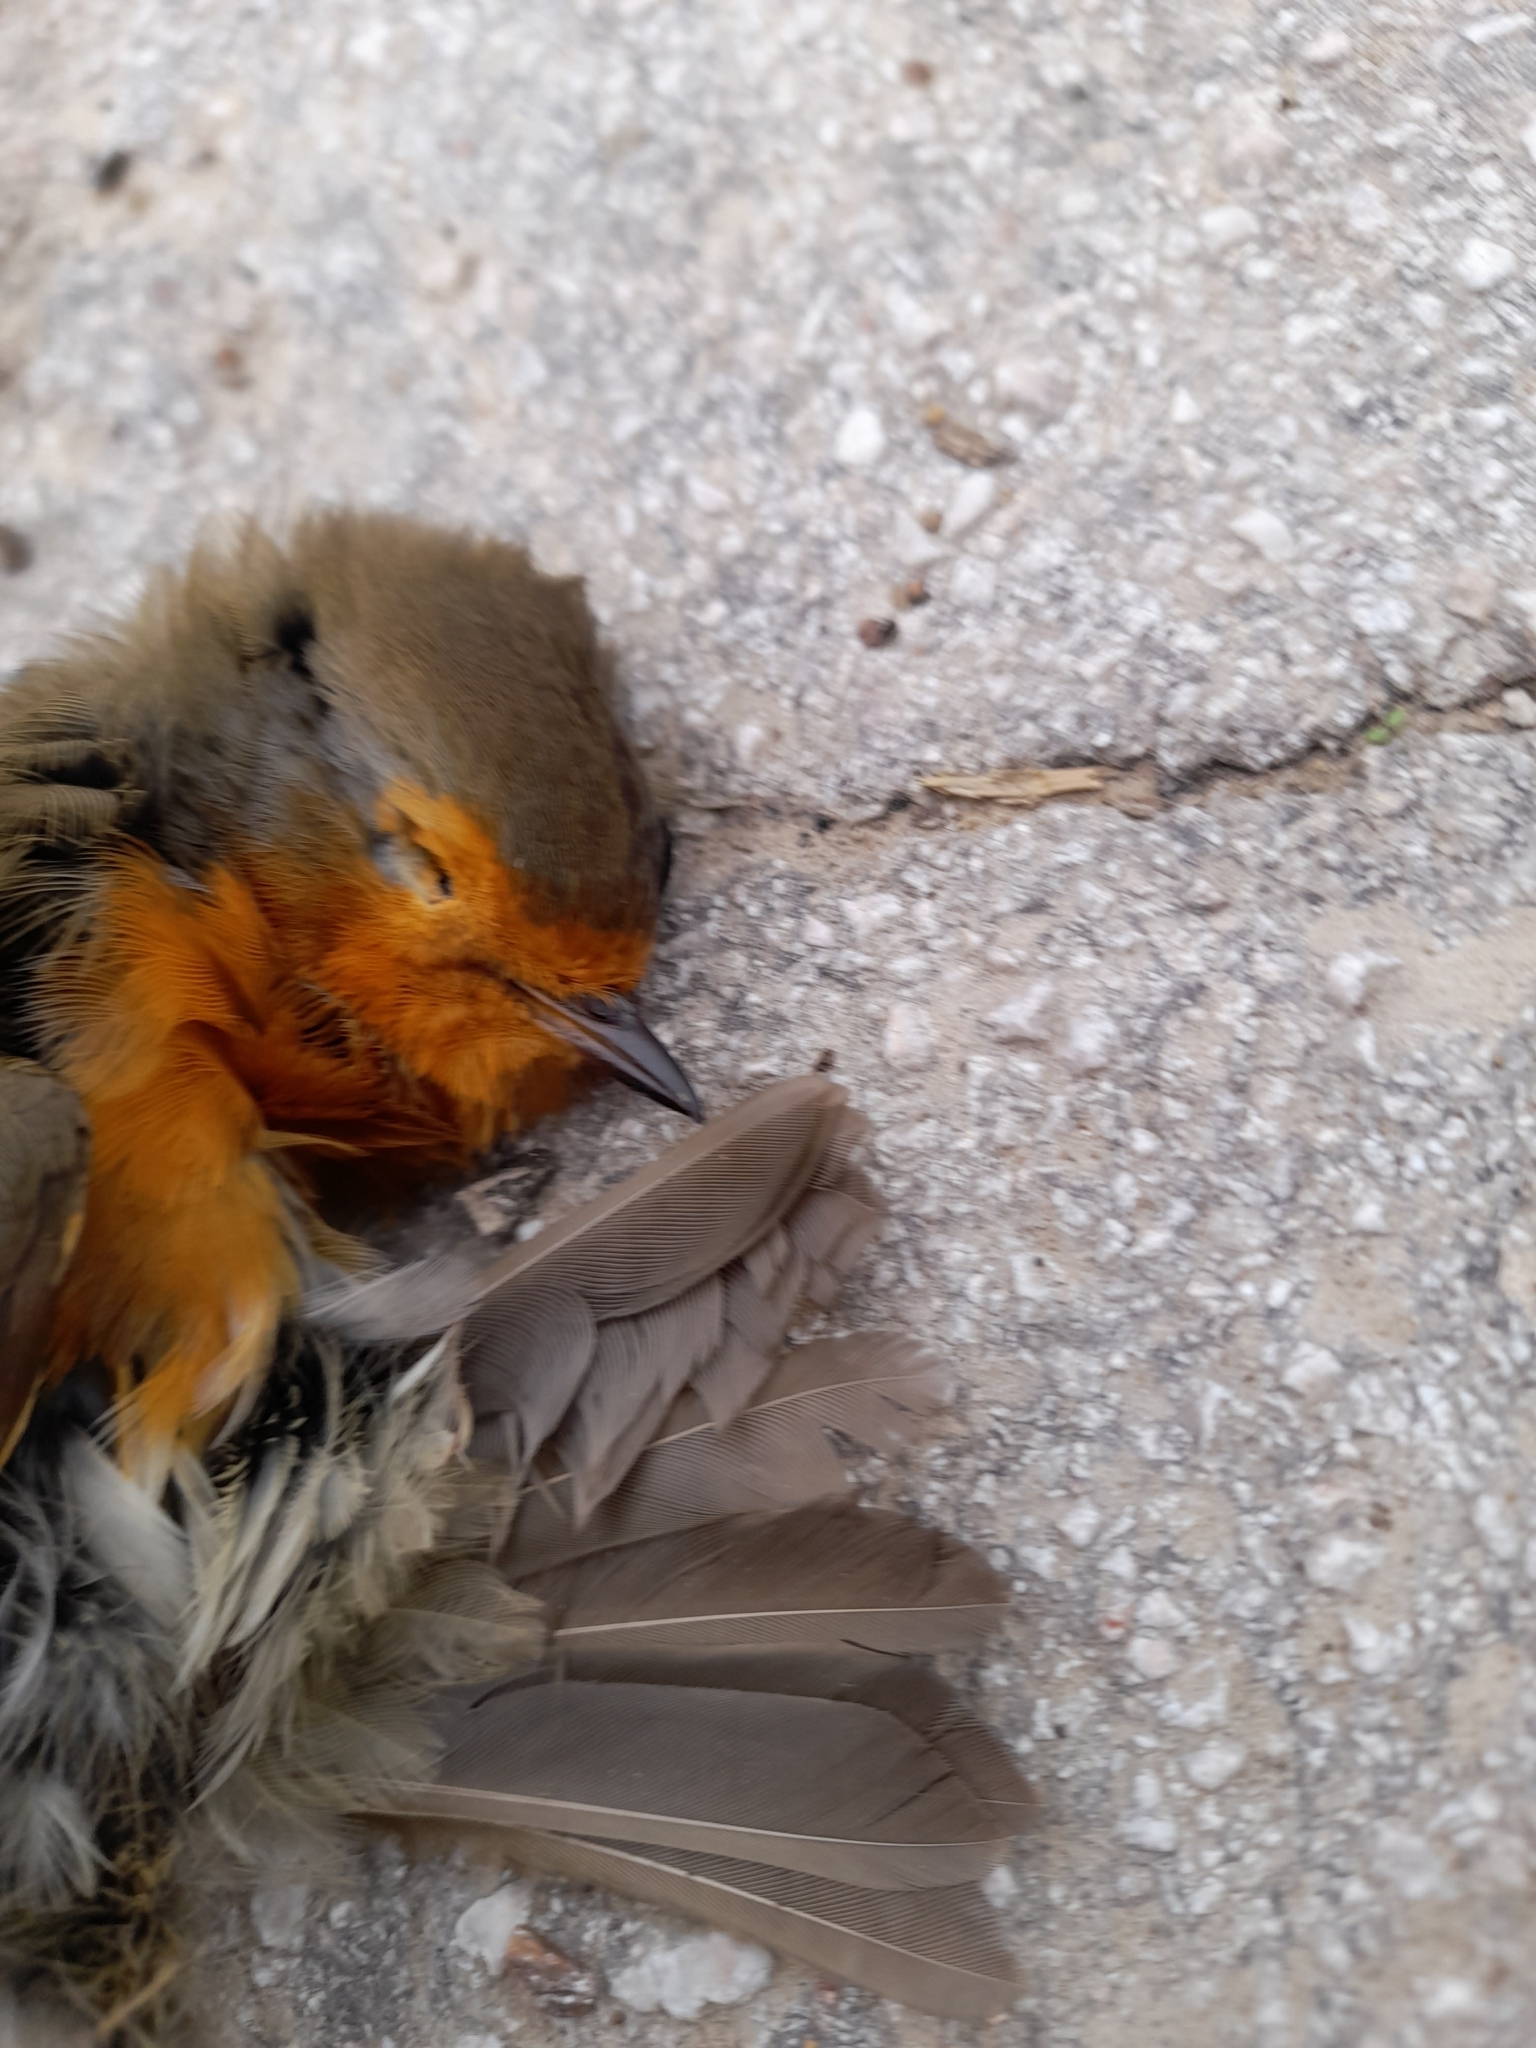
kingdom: Animalia
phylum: Chordata
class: Aves
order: Passeriformes
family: Muscicapidae
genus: Erithacus
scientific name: Erithacus rubecula
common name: European robin
